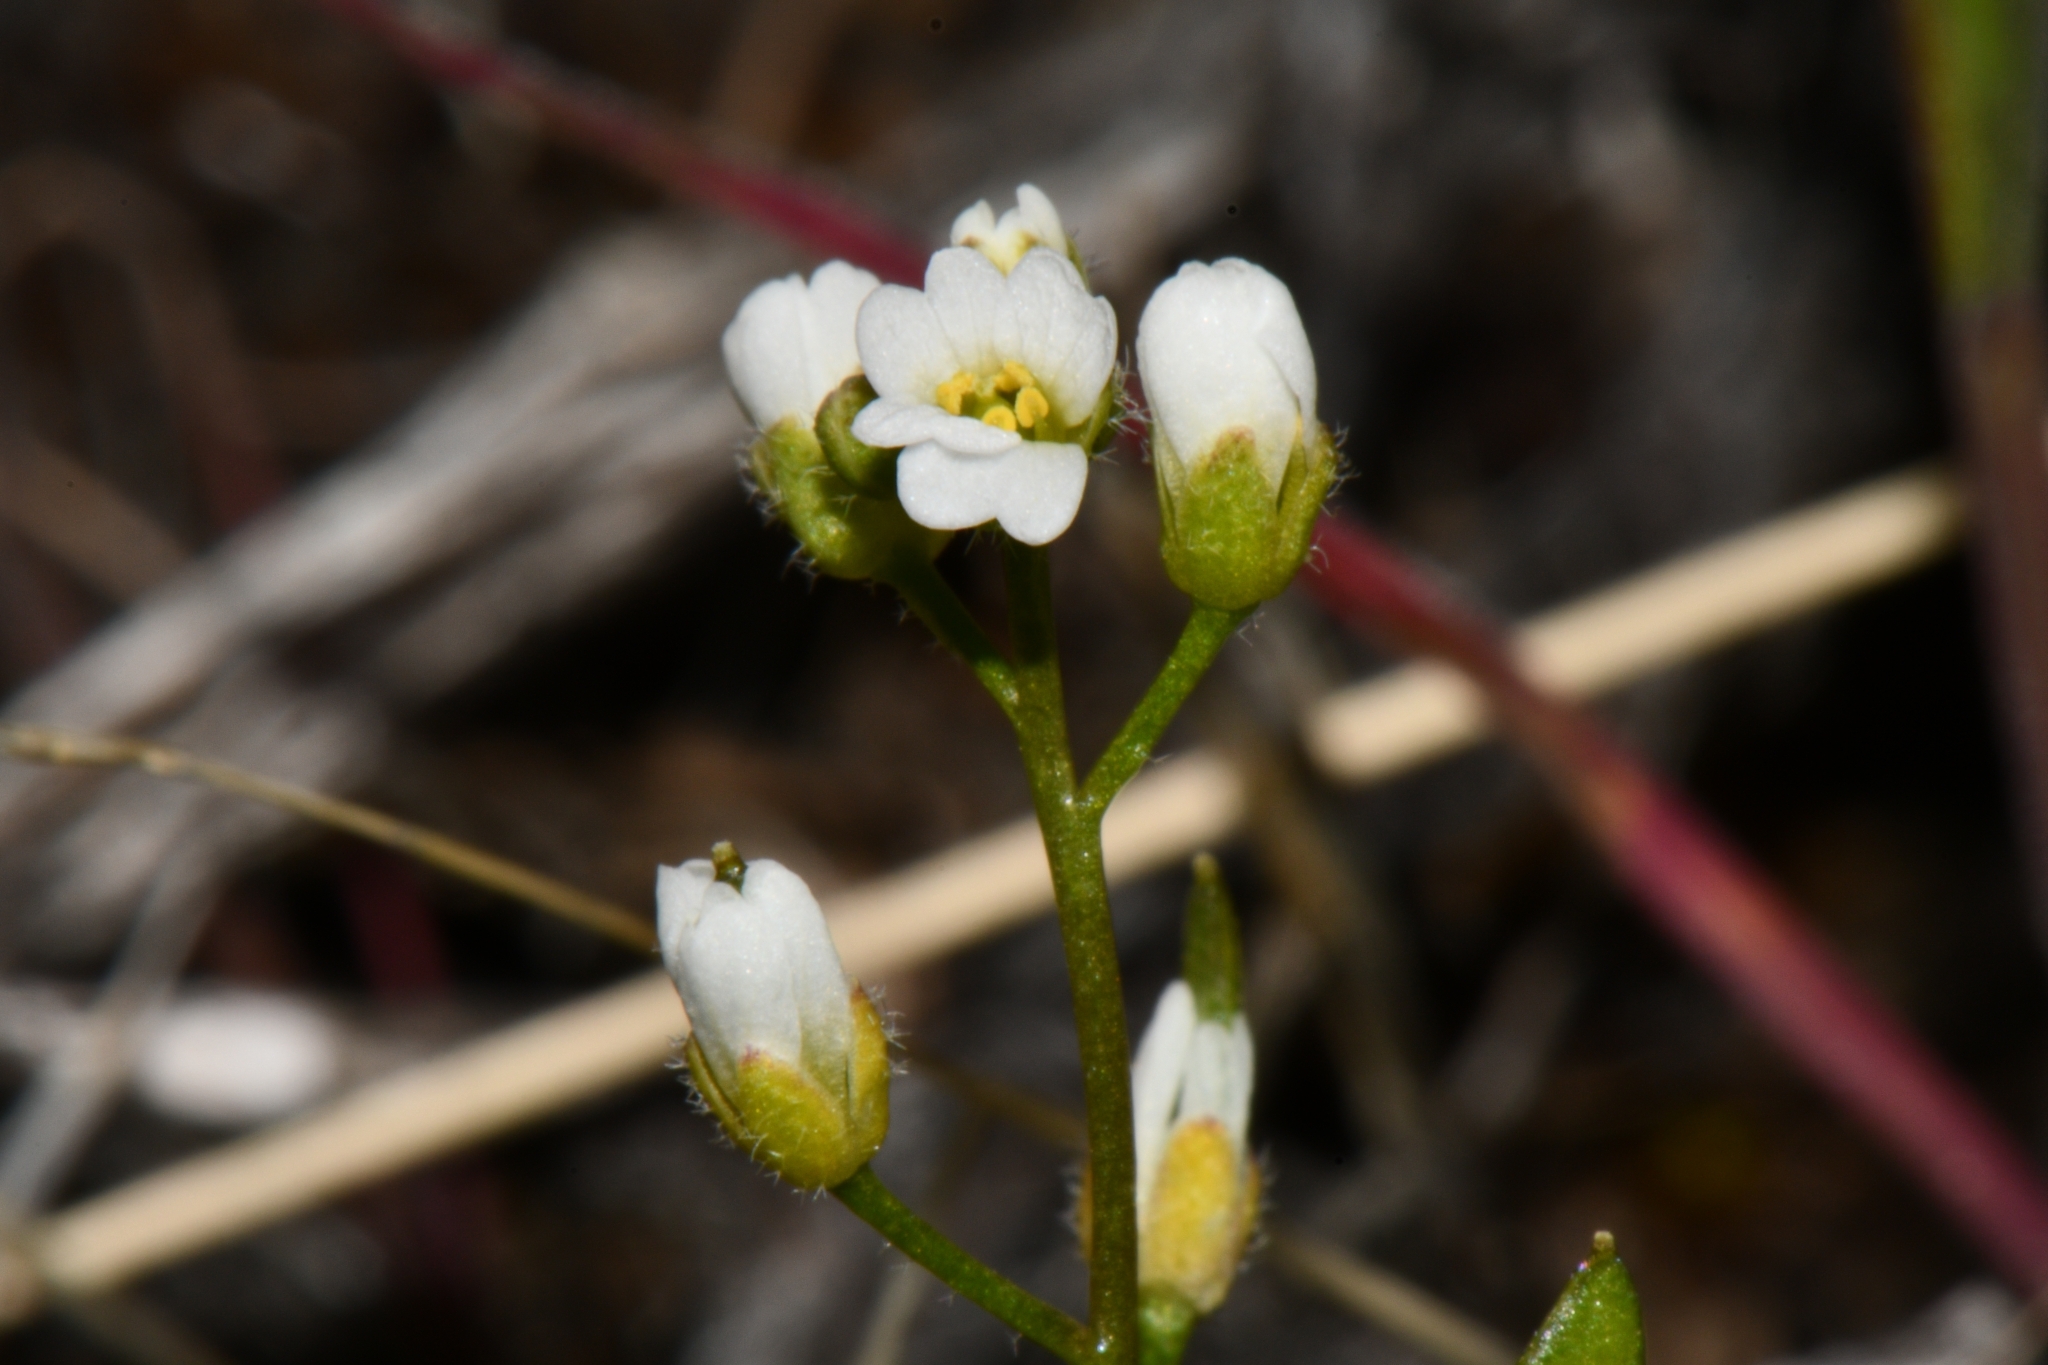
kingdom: Plantae
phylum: Tracheophyta
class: Magnoliopsida
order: Brassicales
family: Brassicaceae
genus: Tomostima
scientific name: Tomostima cuneifolia
